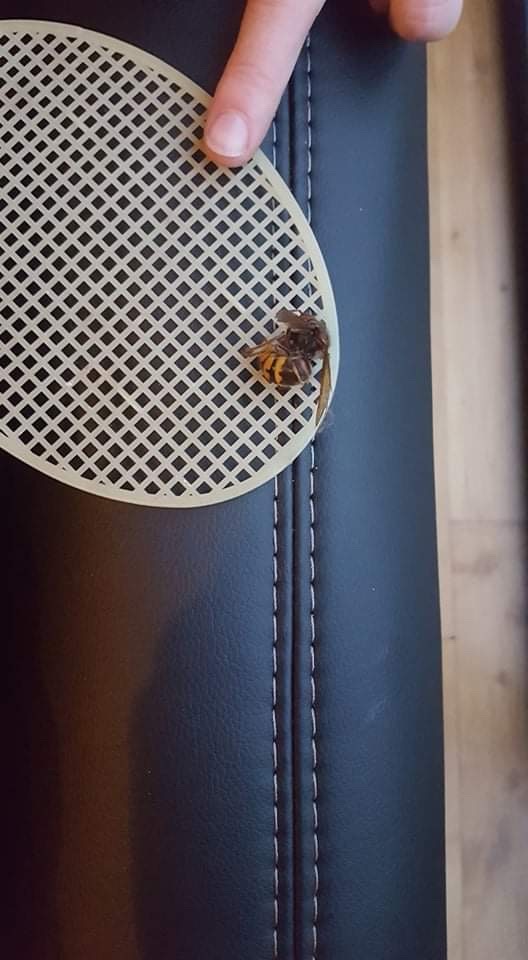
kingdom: Animalia
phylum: Arthropoda
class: Insecta
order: Hymenoptera
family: Vespidae
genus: Vespa
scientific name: Vespa crabro
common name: Hornet
